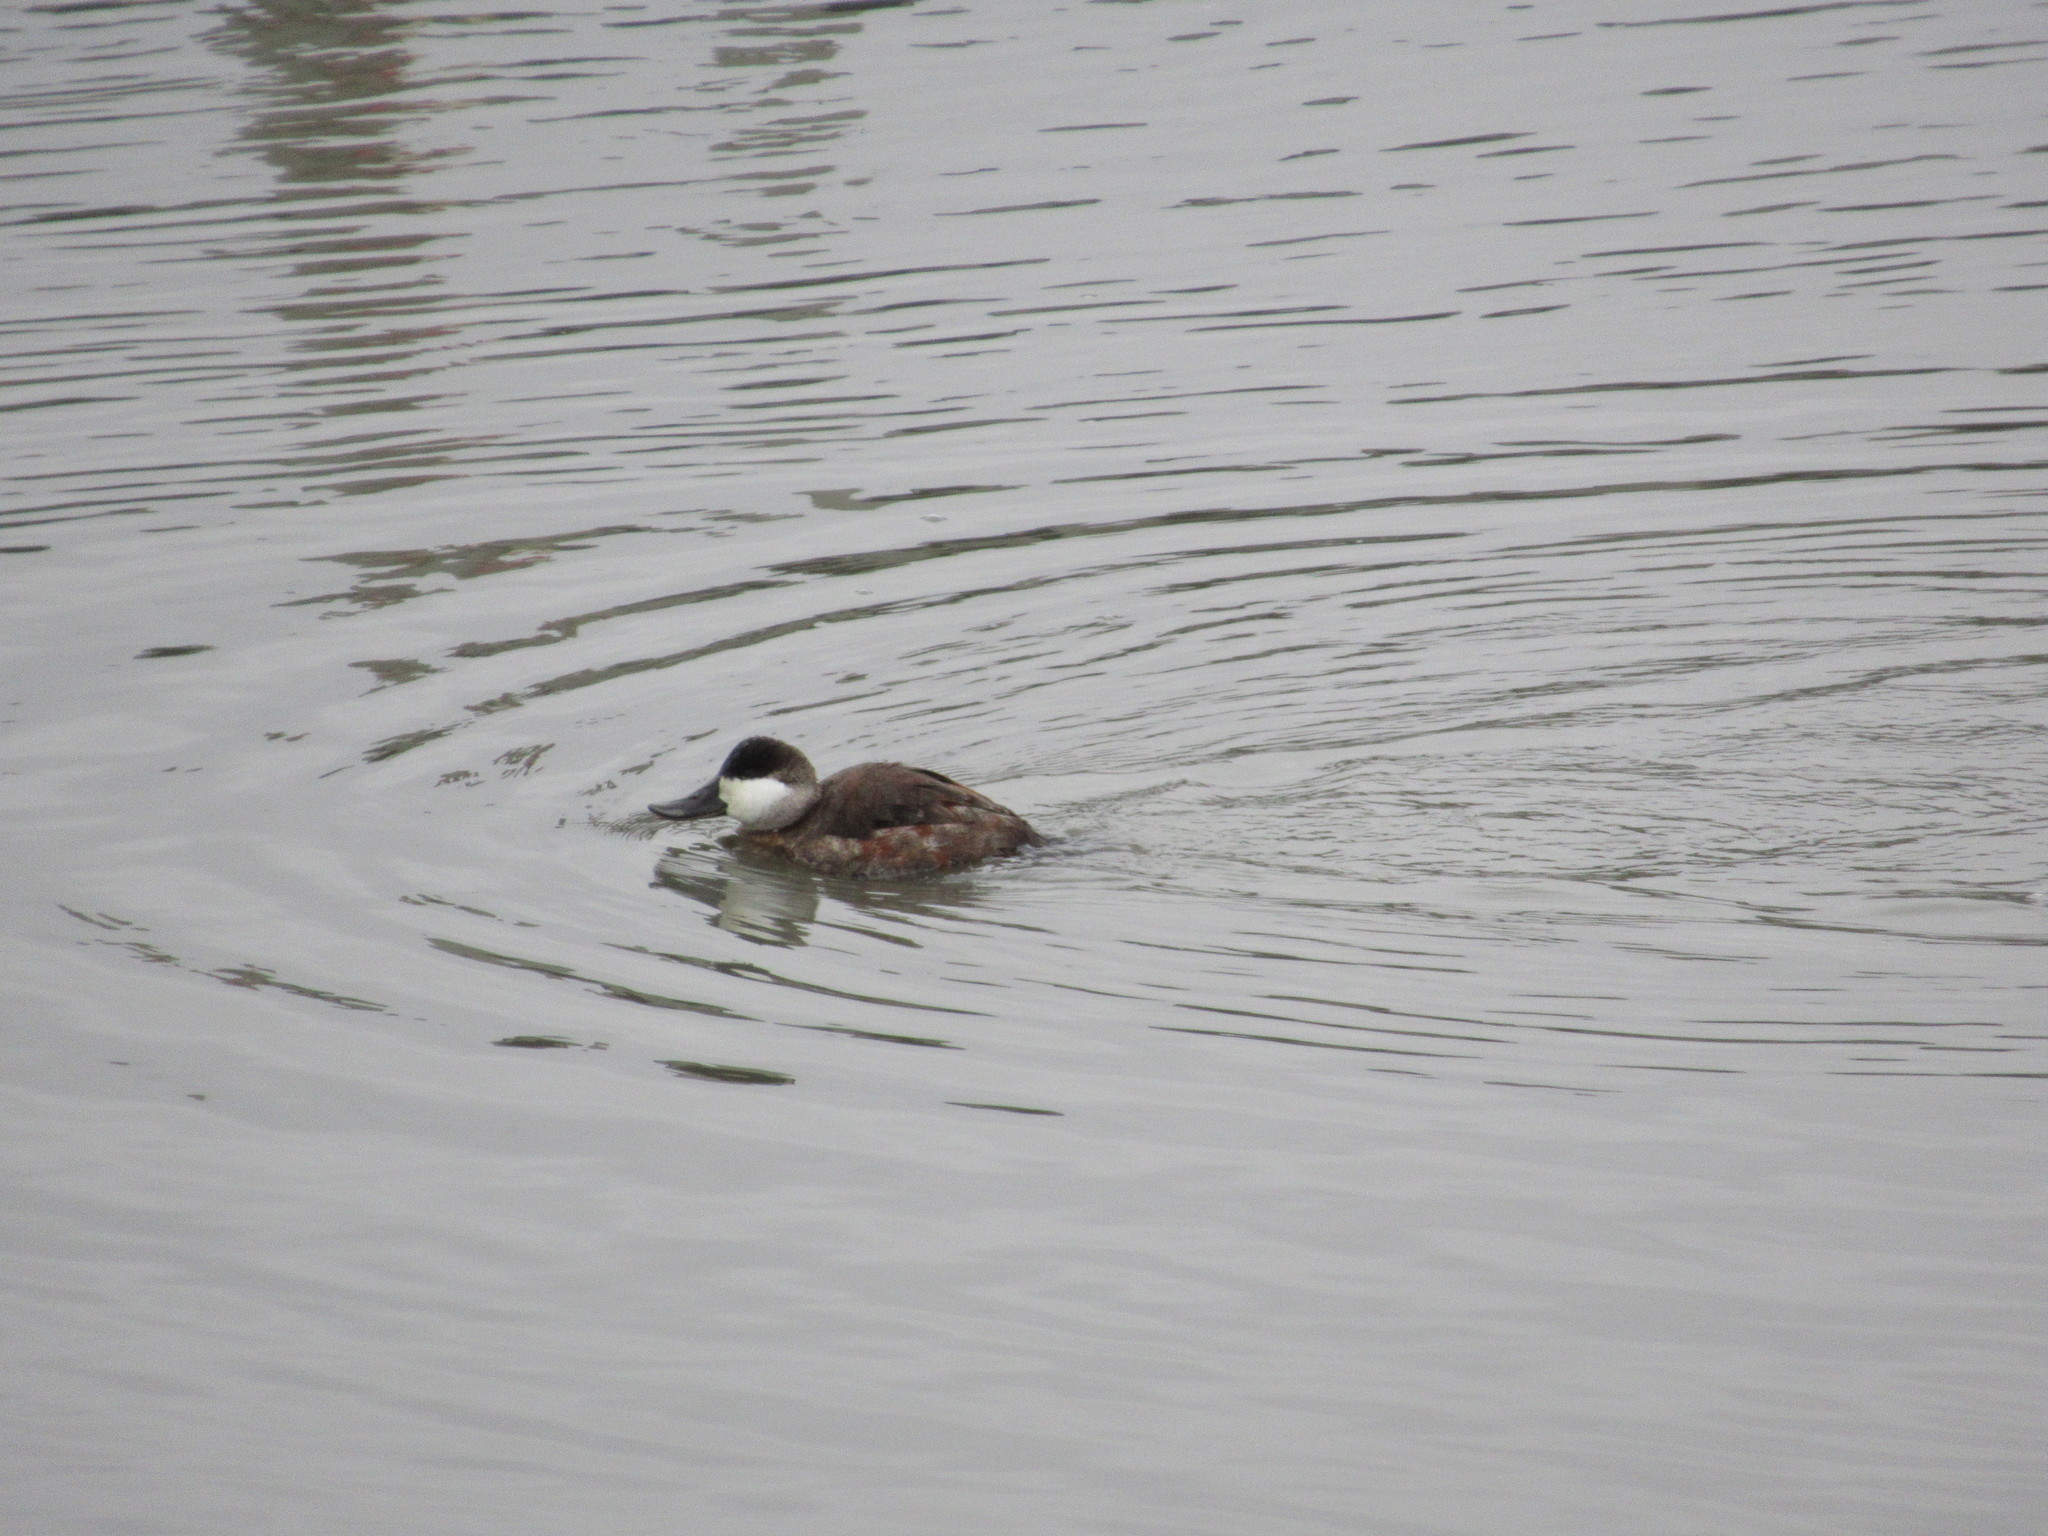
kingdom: Animalia
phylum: Chordata
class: Aves
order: Anseriformes
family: Anatidae
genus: Oxyura
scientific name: Oxyura jamaicensis
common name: Ruddy duck
